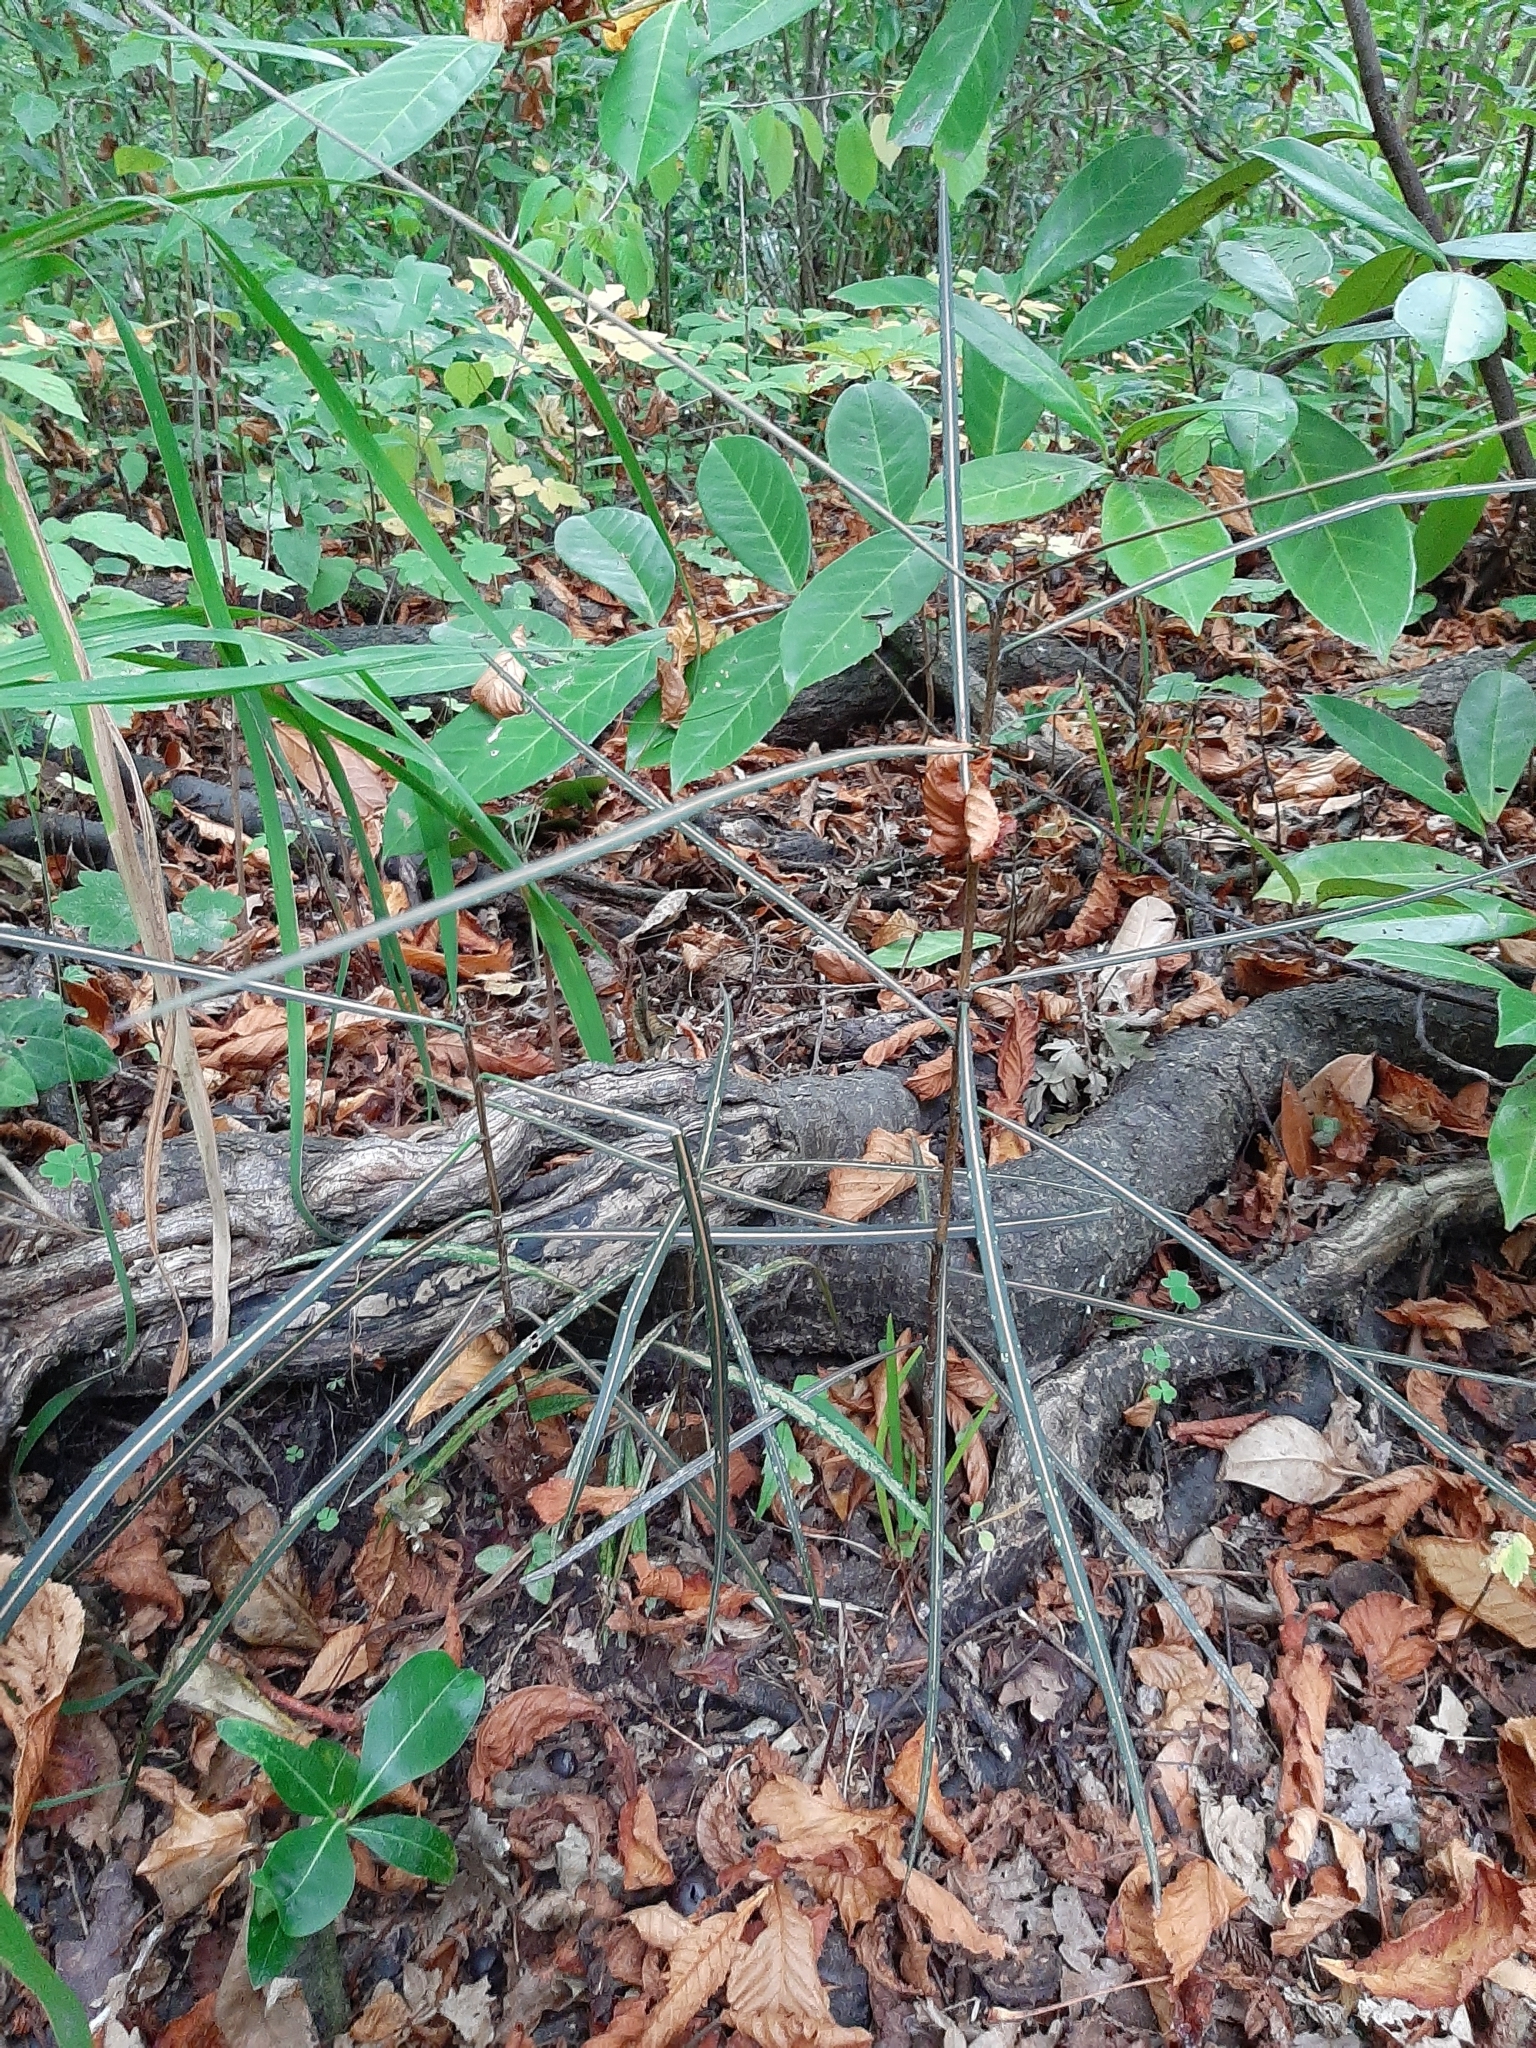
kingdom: Plantae
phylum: Tracheophyta
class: Magnoliopsida
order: Apiales
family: Araliaceae
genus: Pseudopanax
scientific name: Pseudopanax crassifolius
